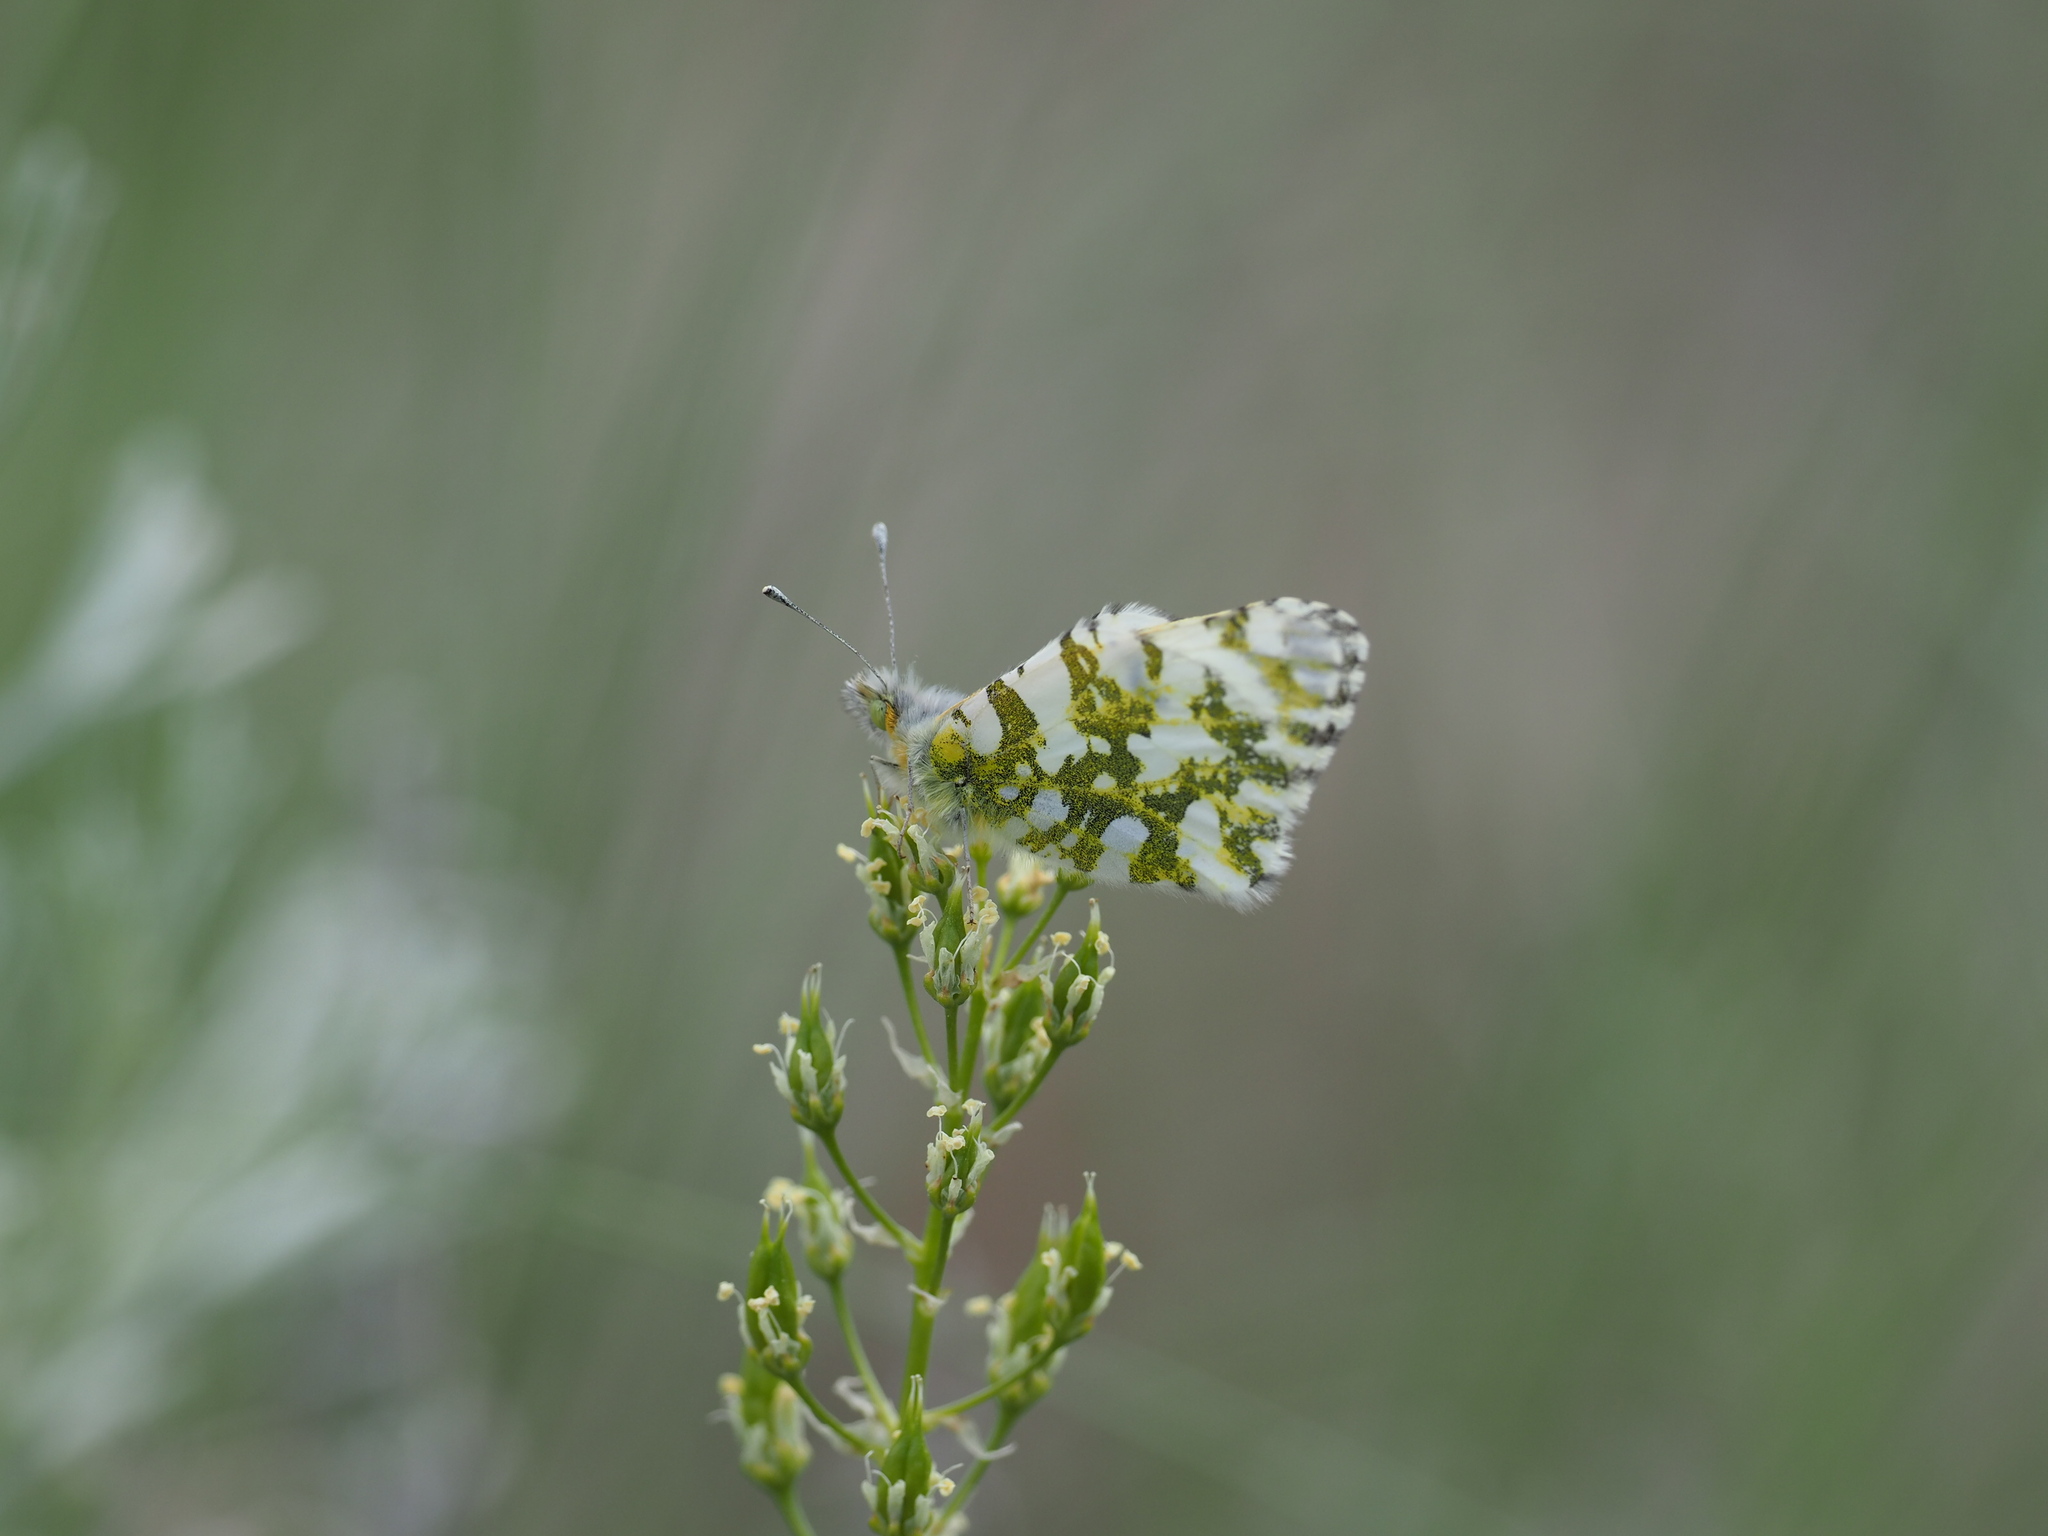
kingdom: Animalia
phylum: Arthropoda
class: Insecta
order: Lepidoptera
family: Pieridae
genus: Euchloe
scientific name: Euchloe ausonides
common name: Creamy marblewing
